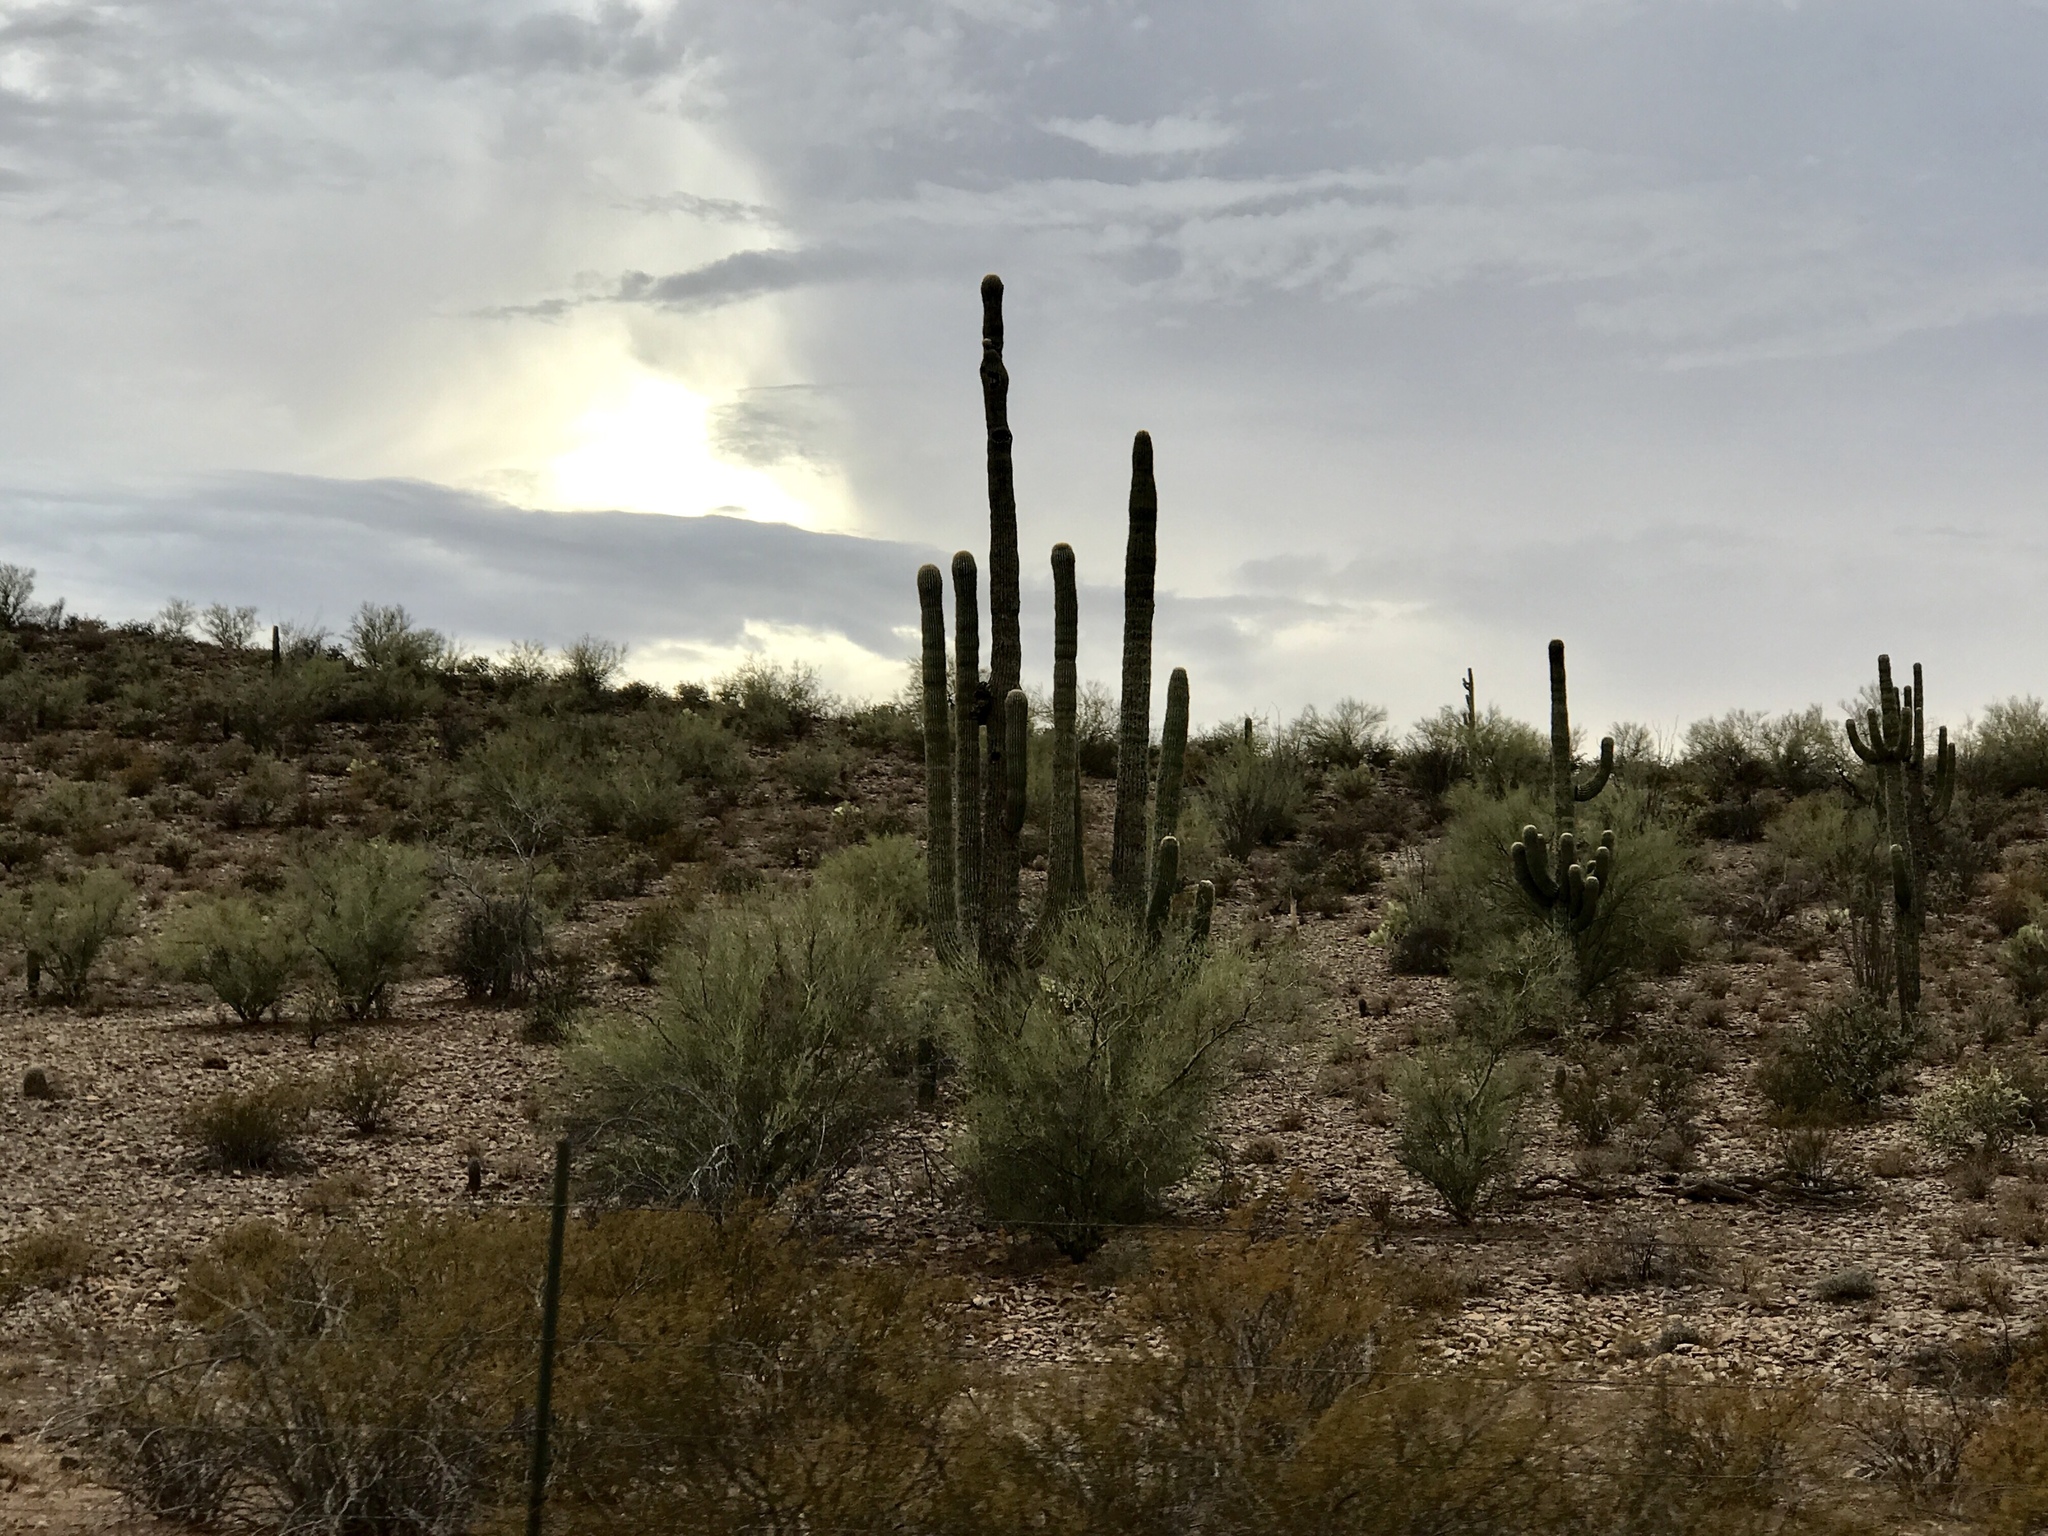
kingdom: Plantae
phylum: Tracheophyta
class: Magnoliopsida
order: Caryophyllales
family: Cactaceae
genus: Carnegiea
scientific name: Carnegiea gigantea
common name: Saguaro
